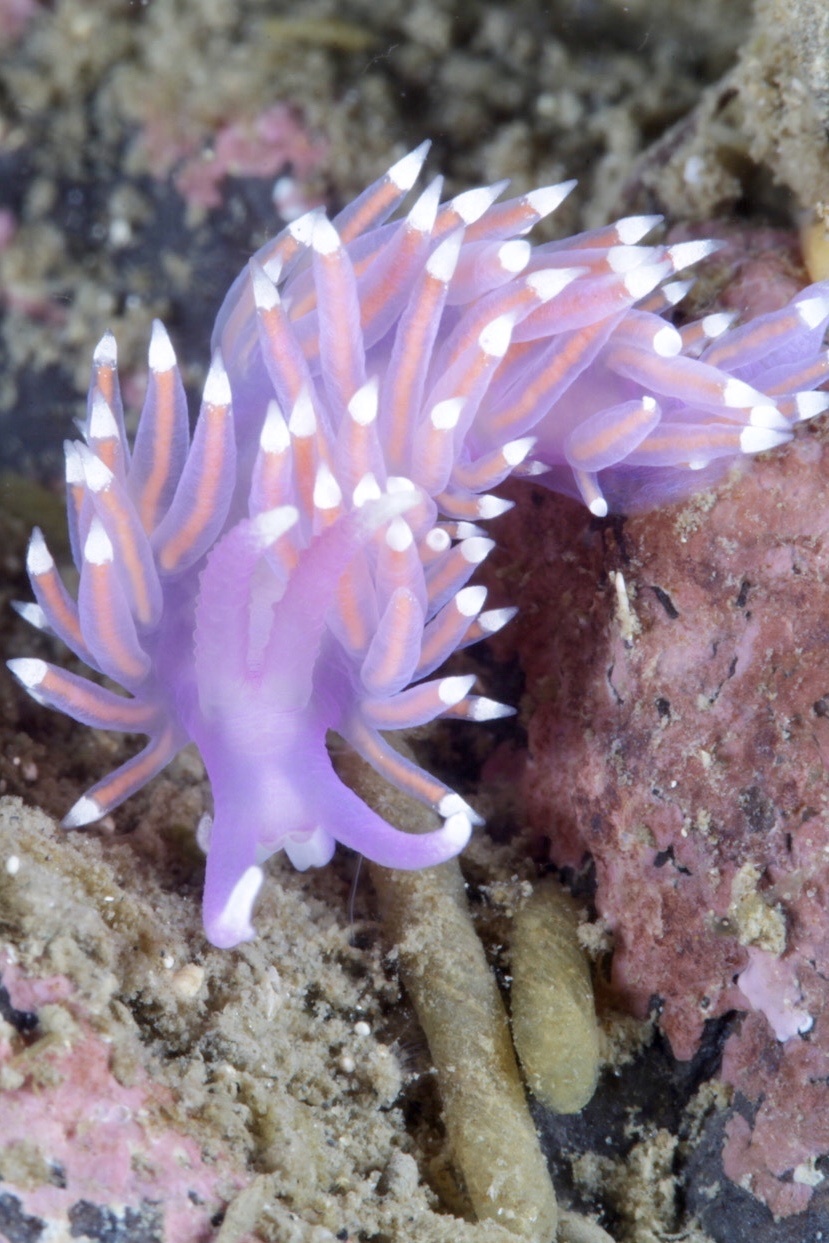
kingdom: Animalia
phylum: Mollusca
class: Gastropoda
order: Nudibranchia
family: Flabellinidae
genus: Edmundsella
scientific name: Edmundsella pedata
